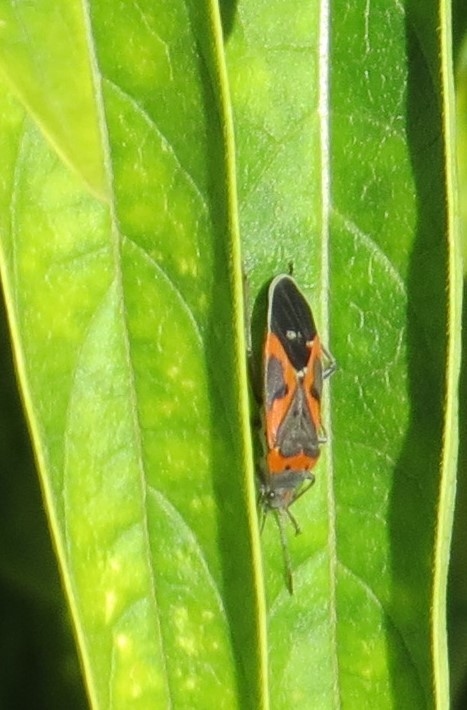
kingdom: Animalia
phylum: Arthropoda
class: Insecta
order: Hemiptera
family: Lygaeidae
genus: Lygaeus
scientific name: Lygaeus kalmii
